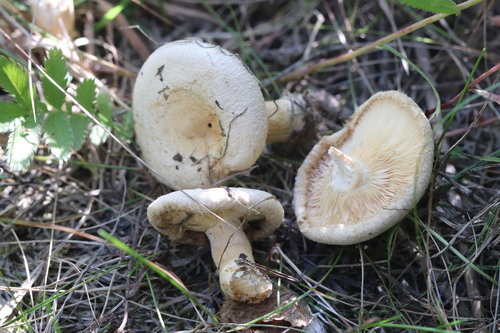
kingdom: Fungi
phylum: Basidiomycota
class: Agaricomycetes
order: Russulales
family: Russulaceae
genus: Lactarius
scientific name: Lactarius pubescens
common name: Bearded milkcap
